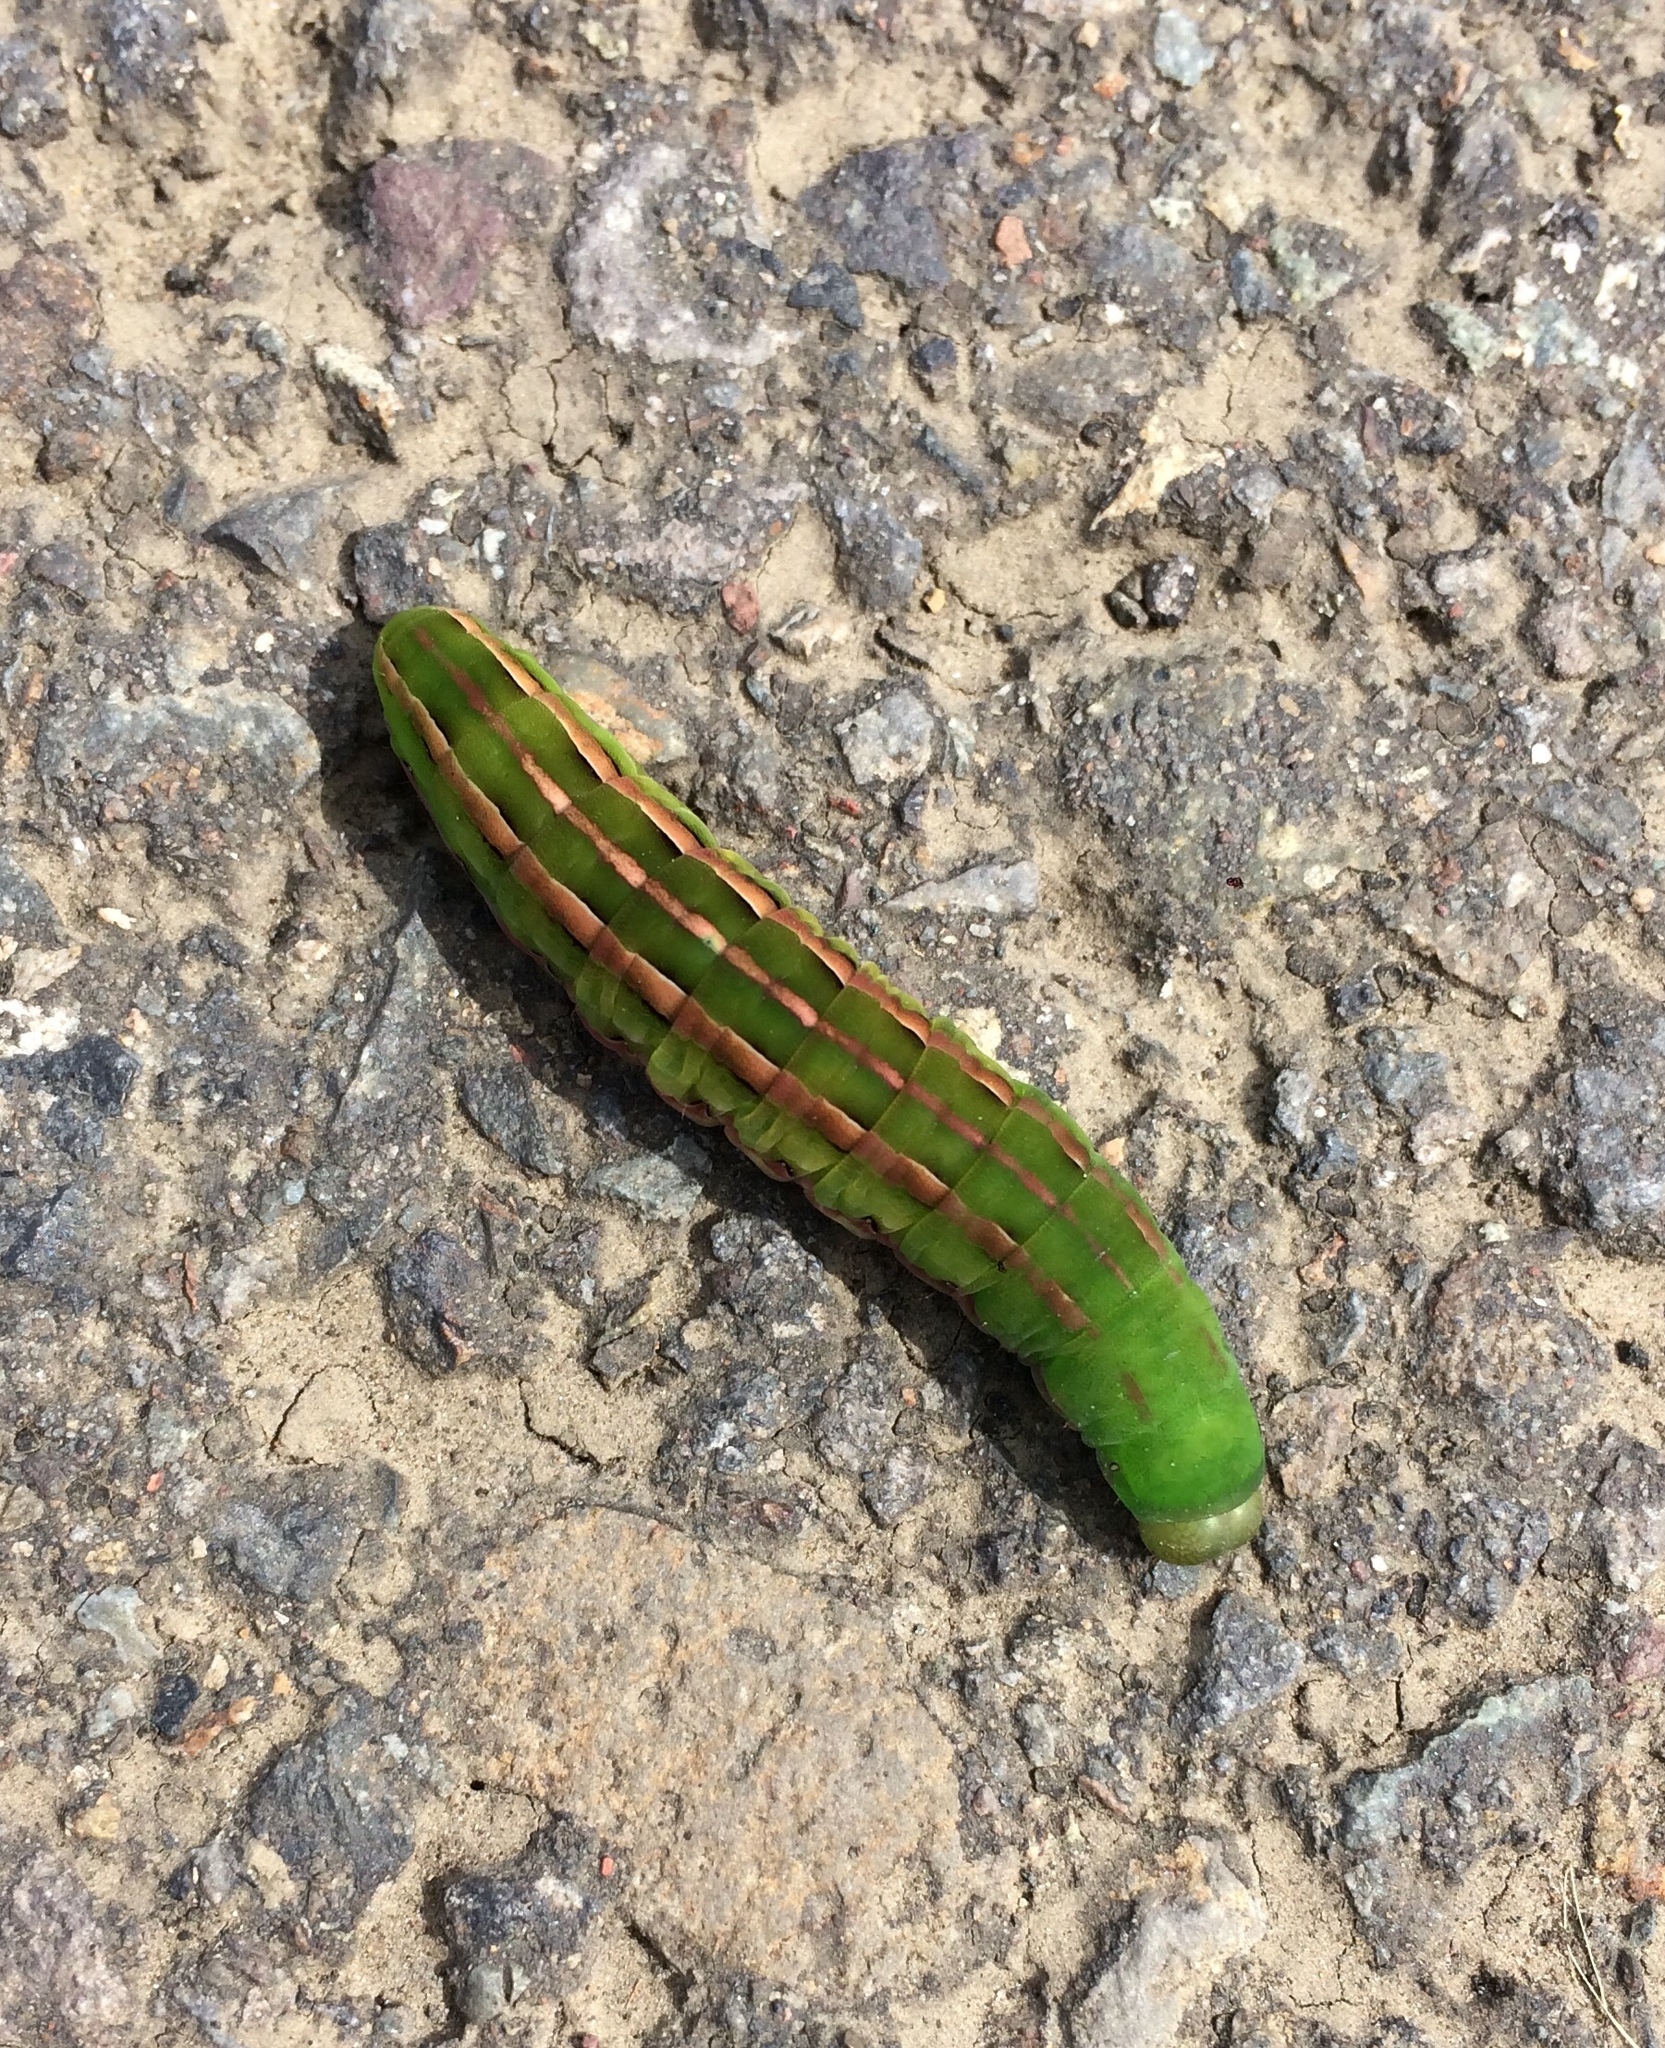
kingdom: Animalia
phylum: Arthropoda
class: Insecta
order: Lepidoptera
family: Noctuidae
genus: Dargida
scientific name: Dargida procinctus
